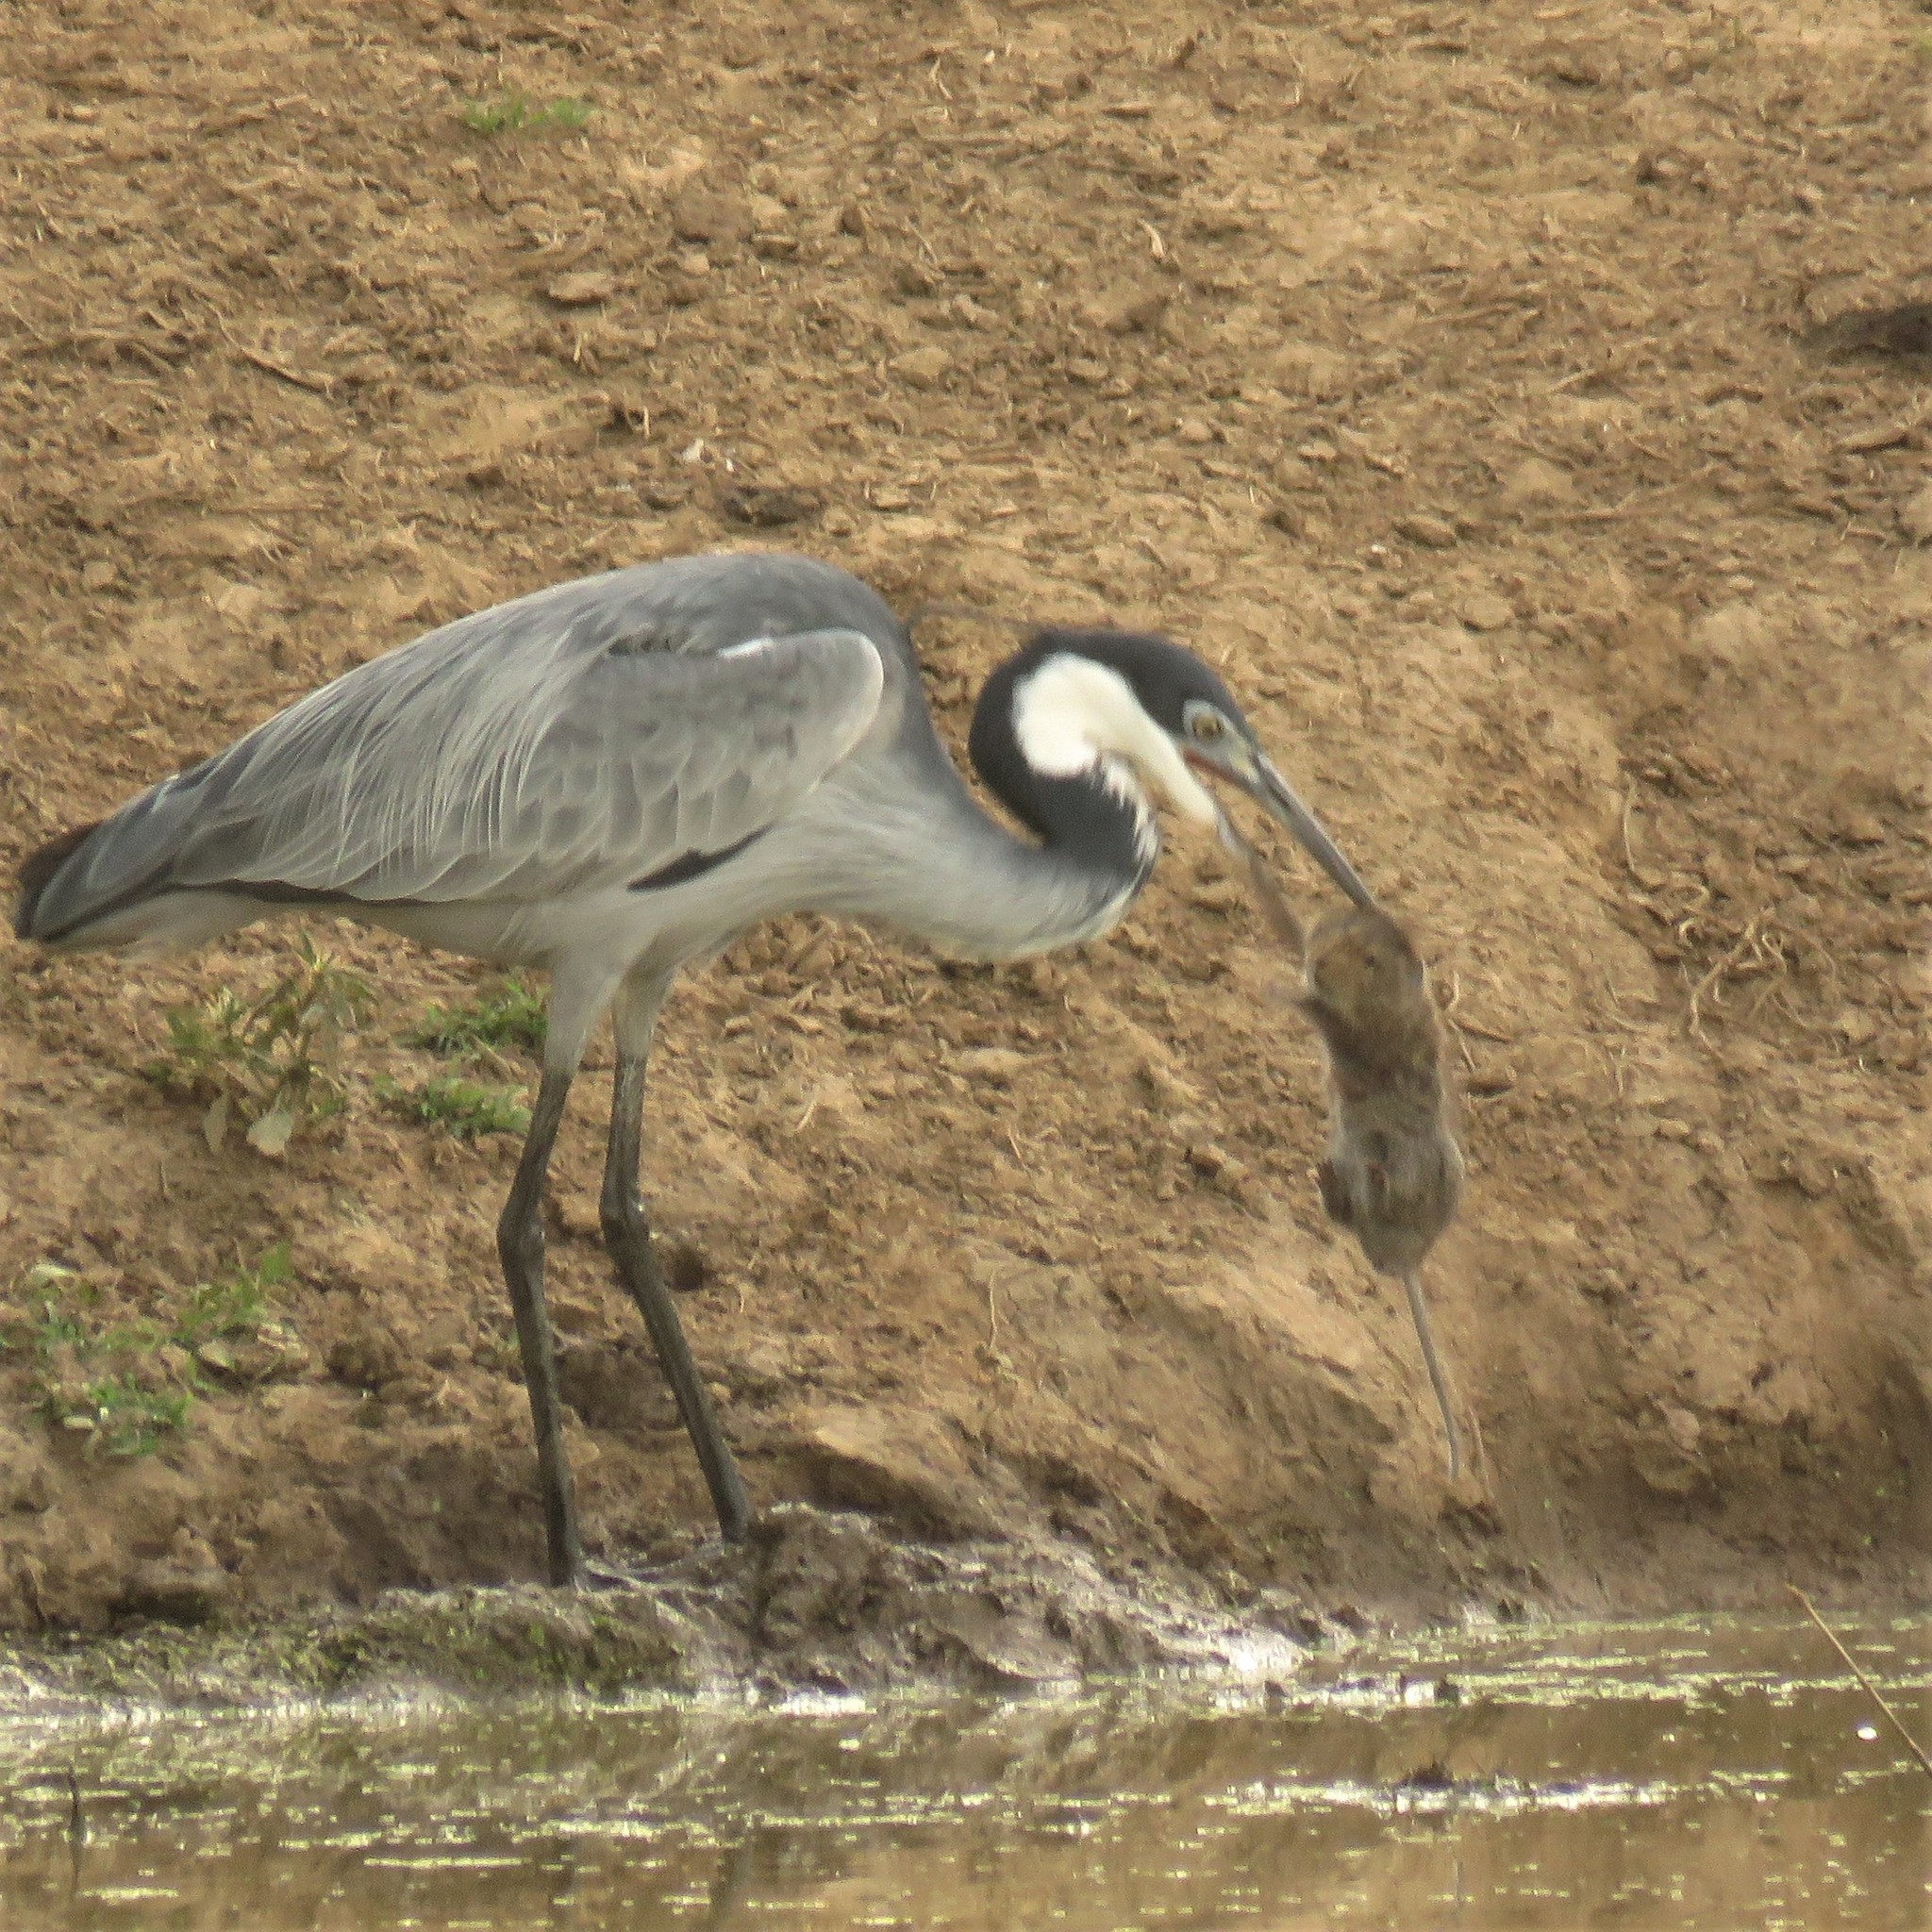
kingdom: Animalia
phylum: Chordata
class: Aves
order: Pelecaniformes
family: Ardeidae
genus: Ardea
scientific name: Ardea melanocephala
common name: Black-headed heron
